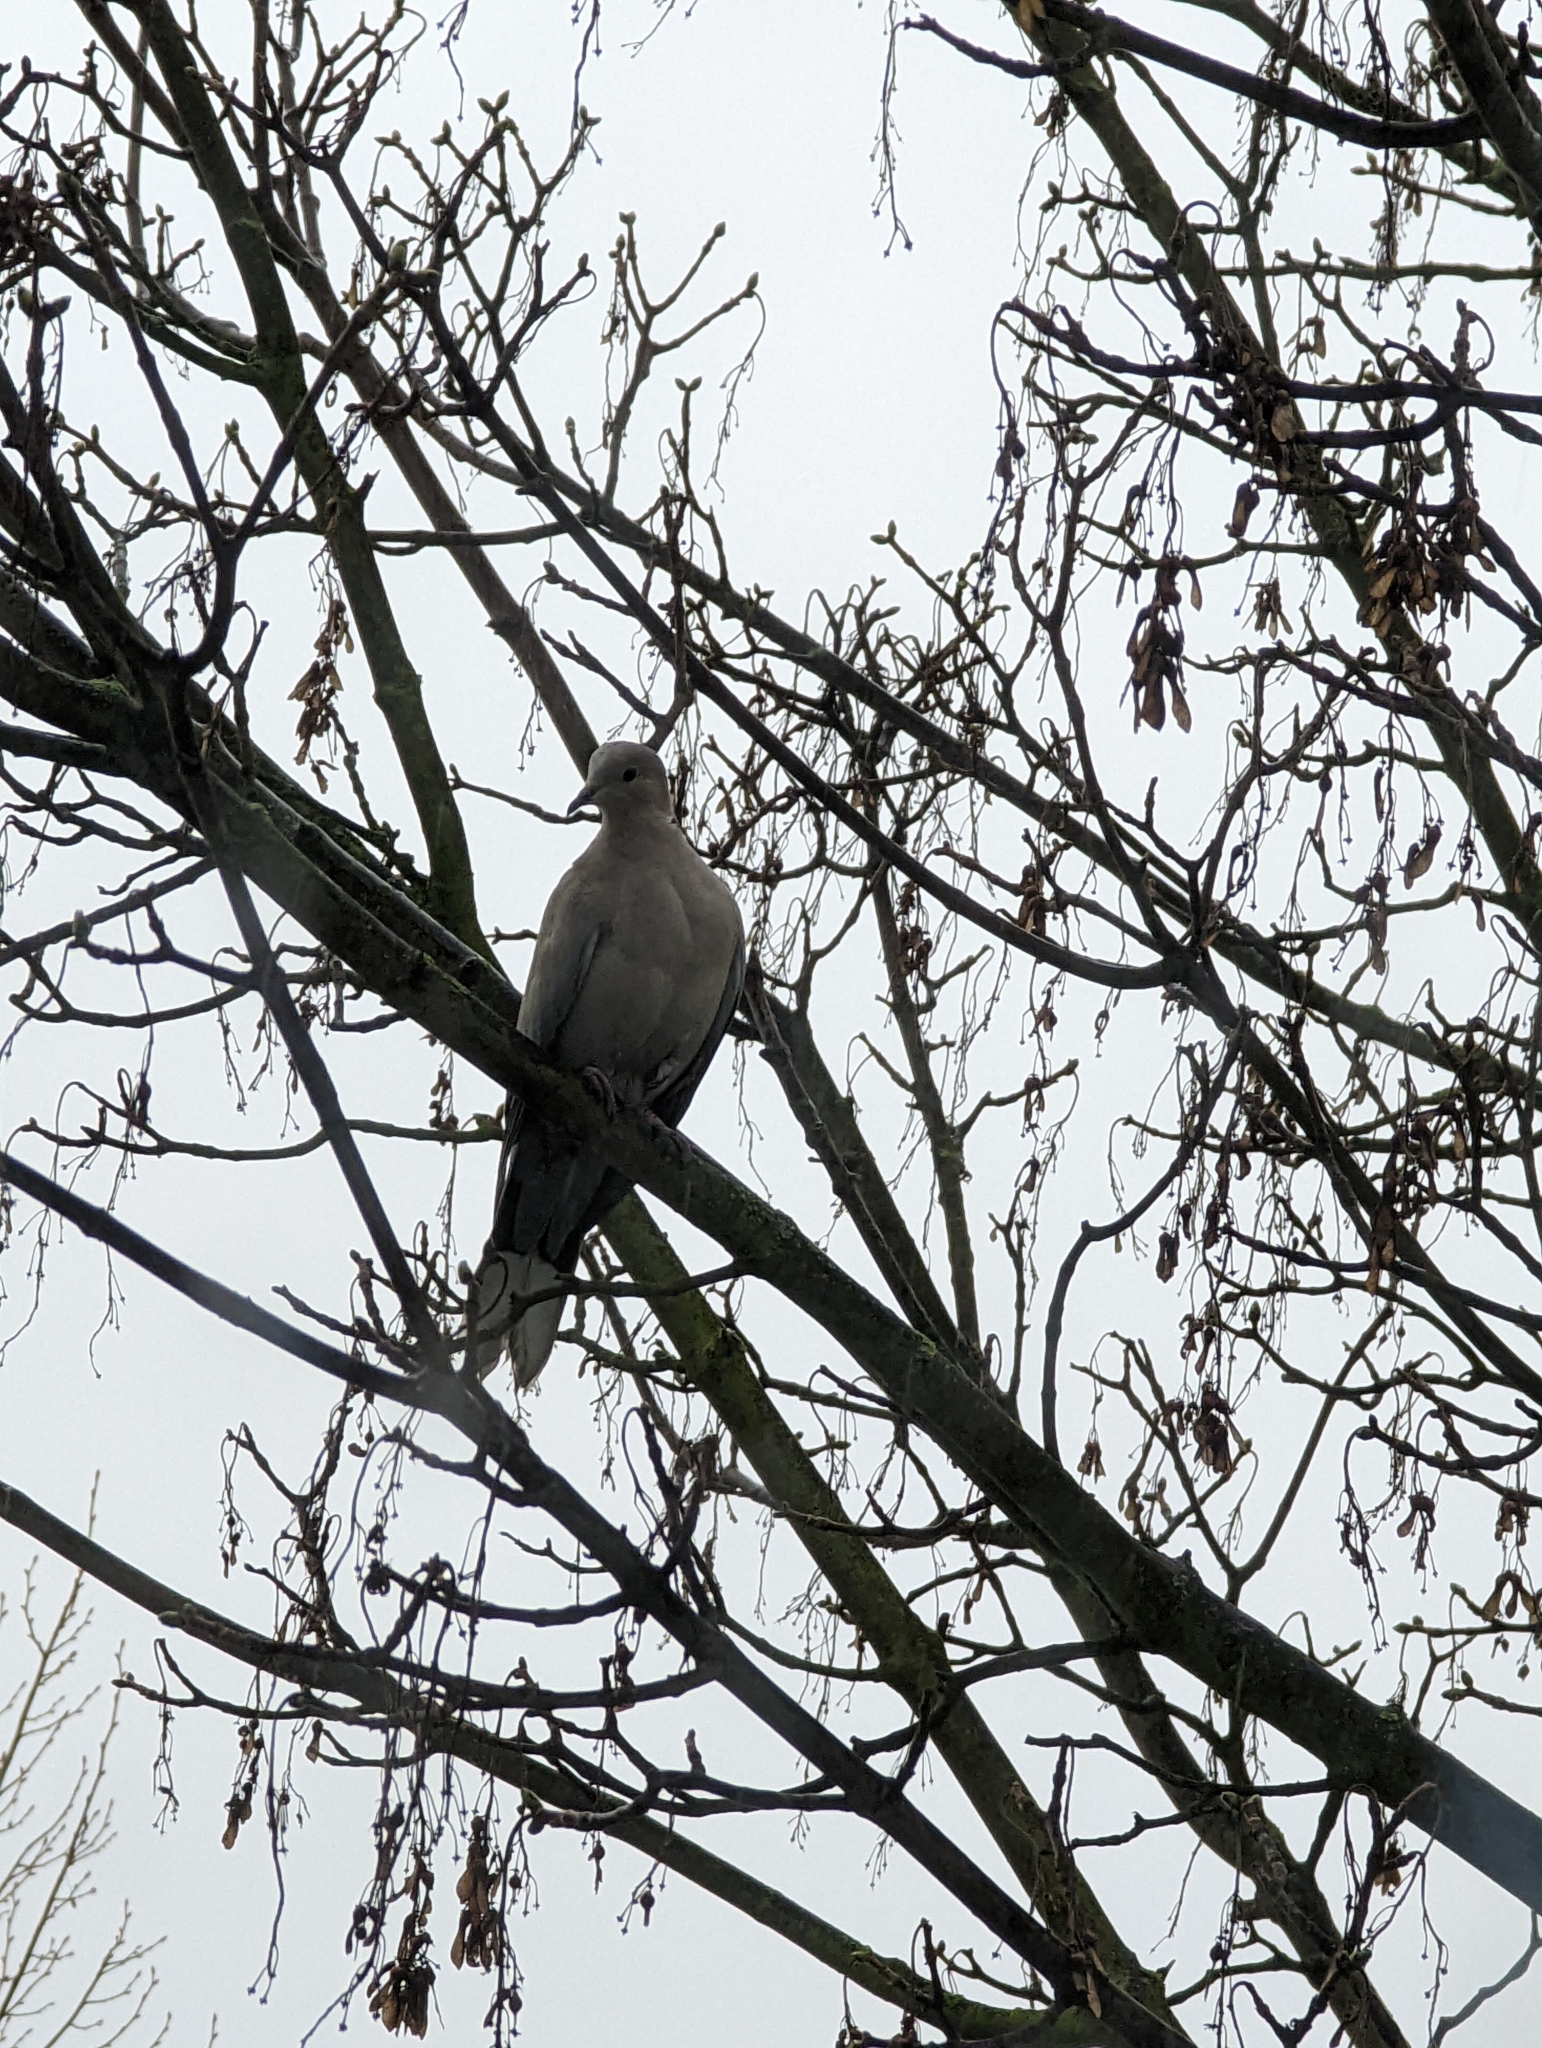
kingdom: Animalia
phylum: Chordata
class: Aves
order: Columbiformes
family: Columbidae
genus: Streptopelia
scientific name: Streptopelia decaocto
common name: Eurasian collared dove
